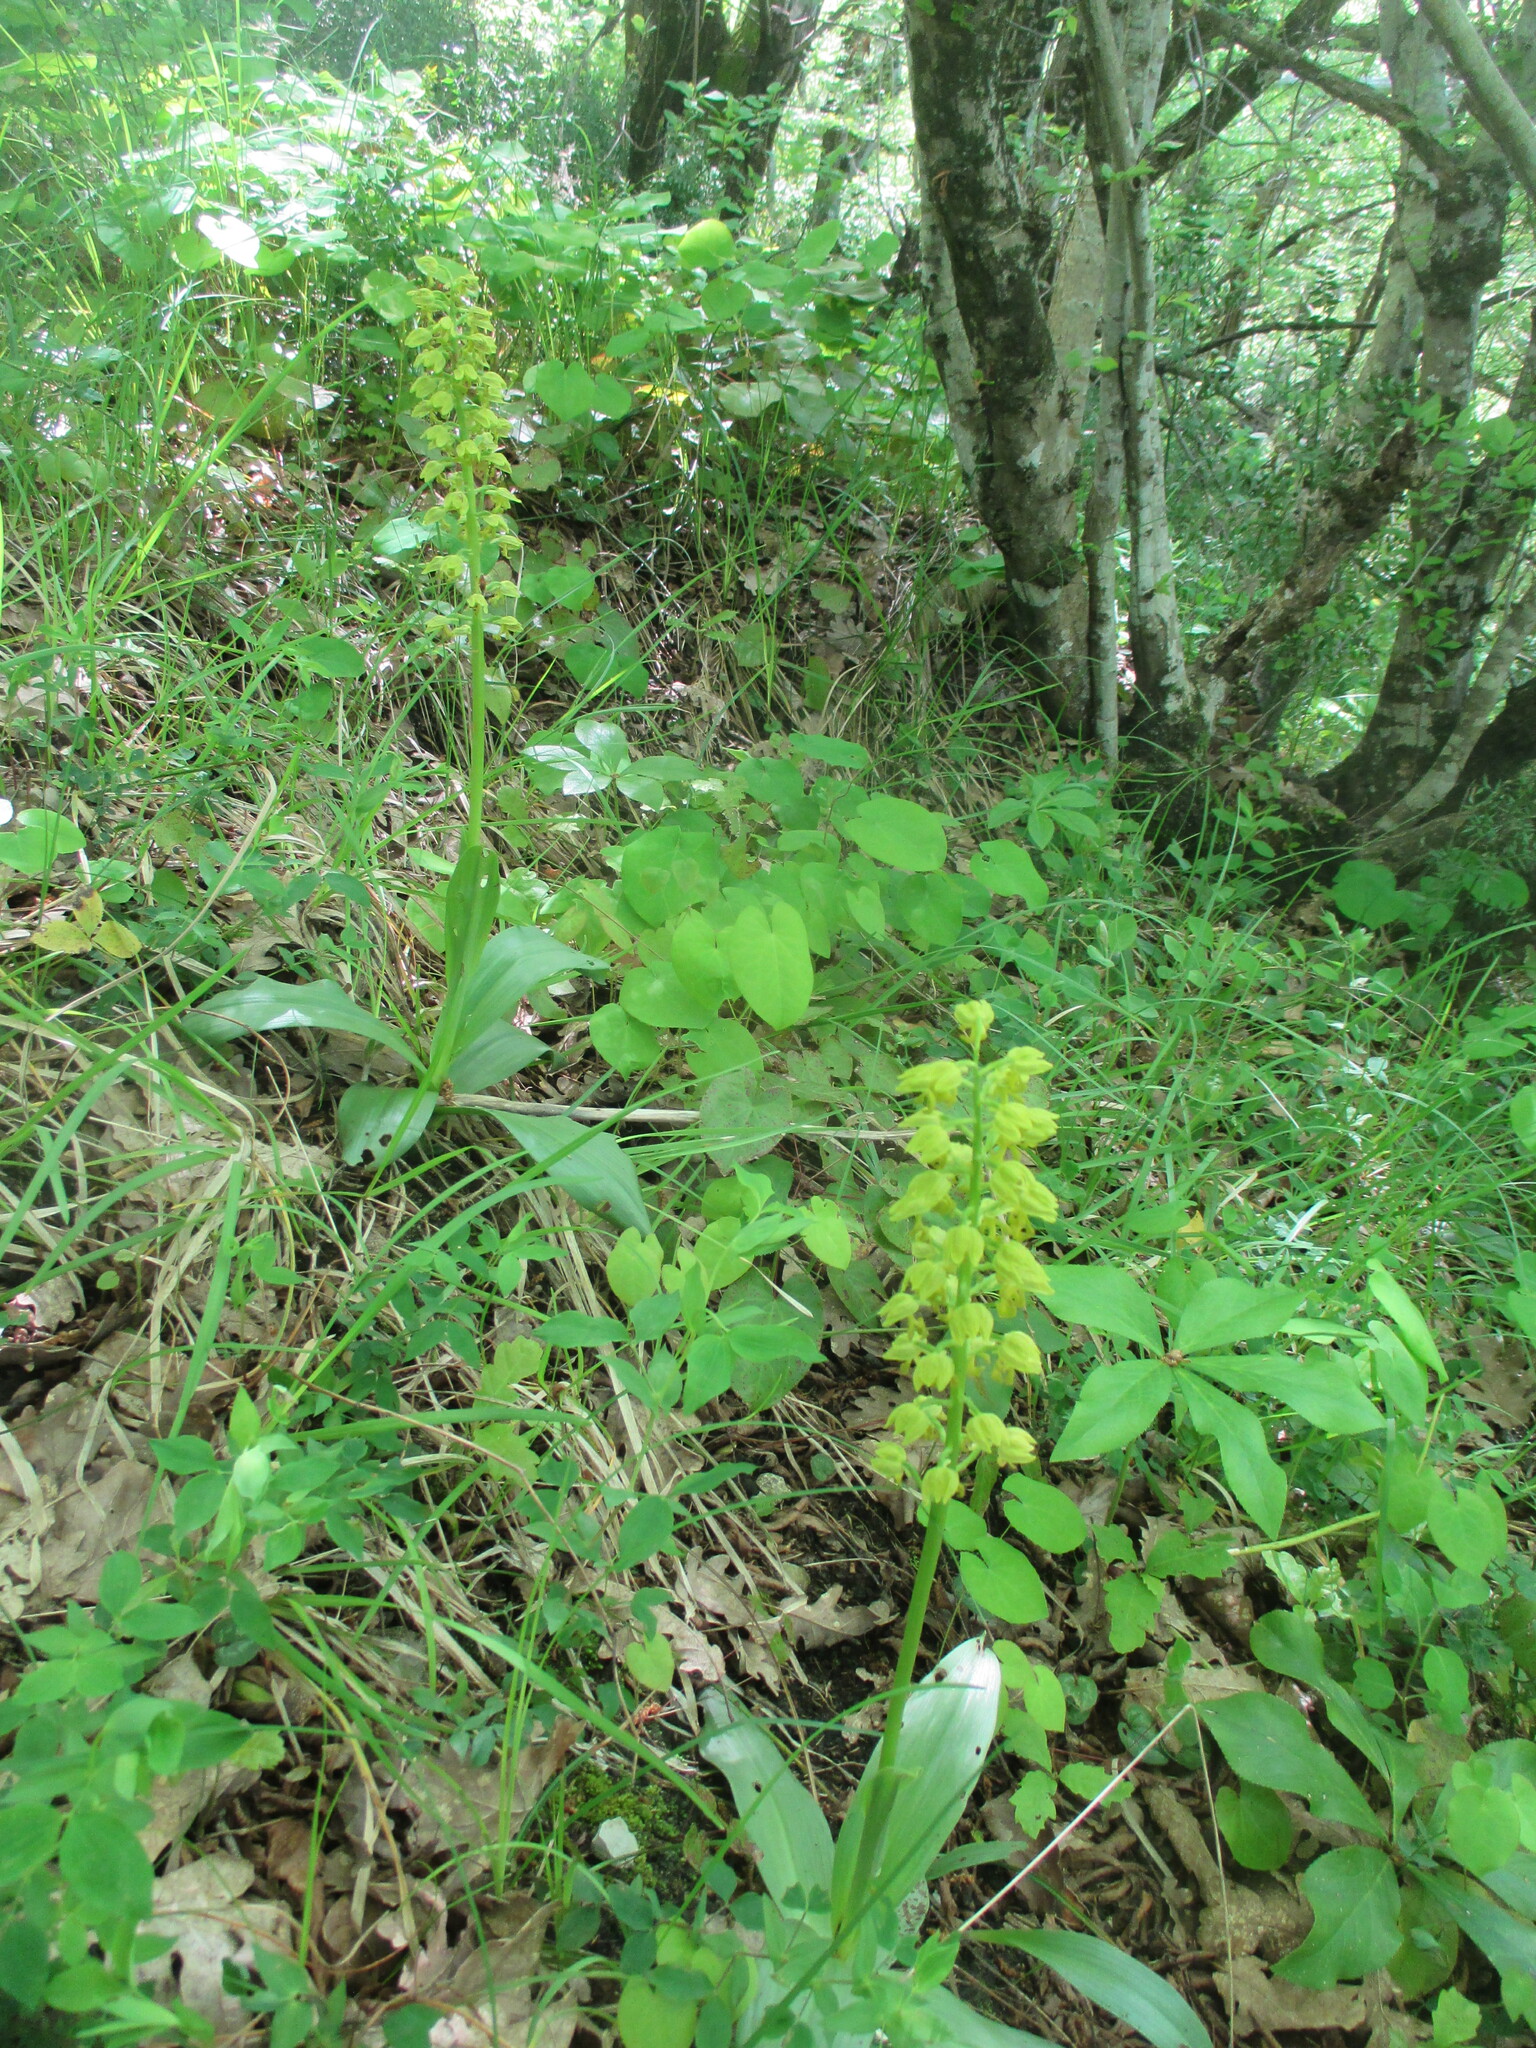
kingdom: Plantae
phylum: Tracheophyta
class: Liliopsida
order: Asparagales
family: Orchidaceae
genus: Orchis
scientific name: Orchis punctulata
